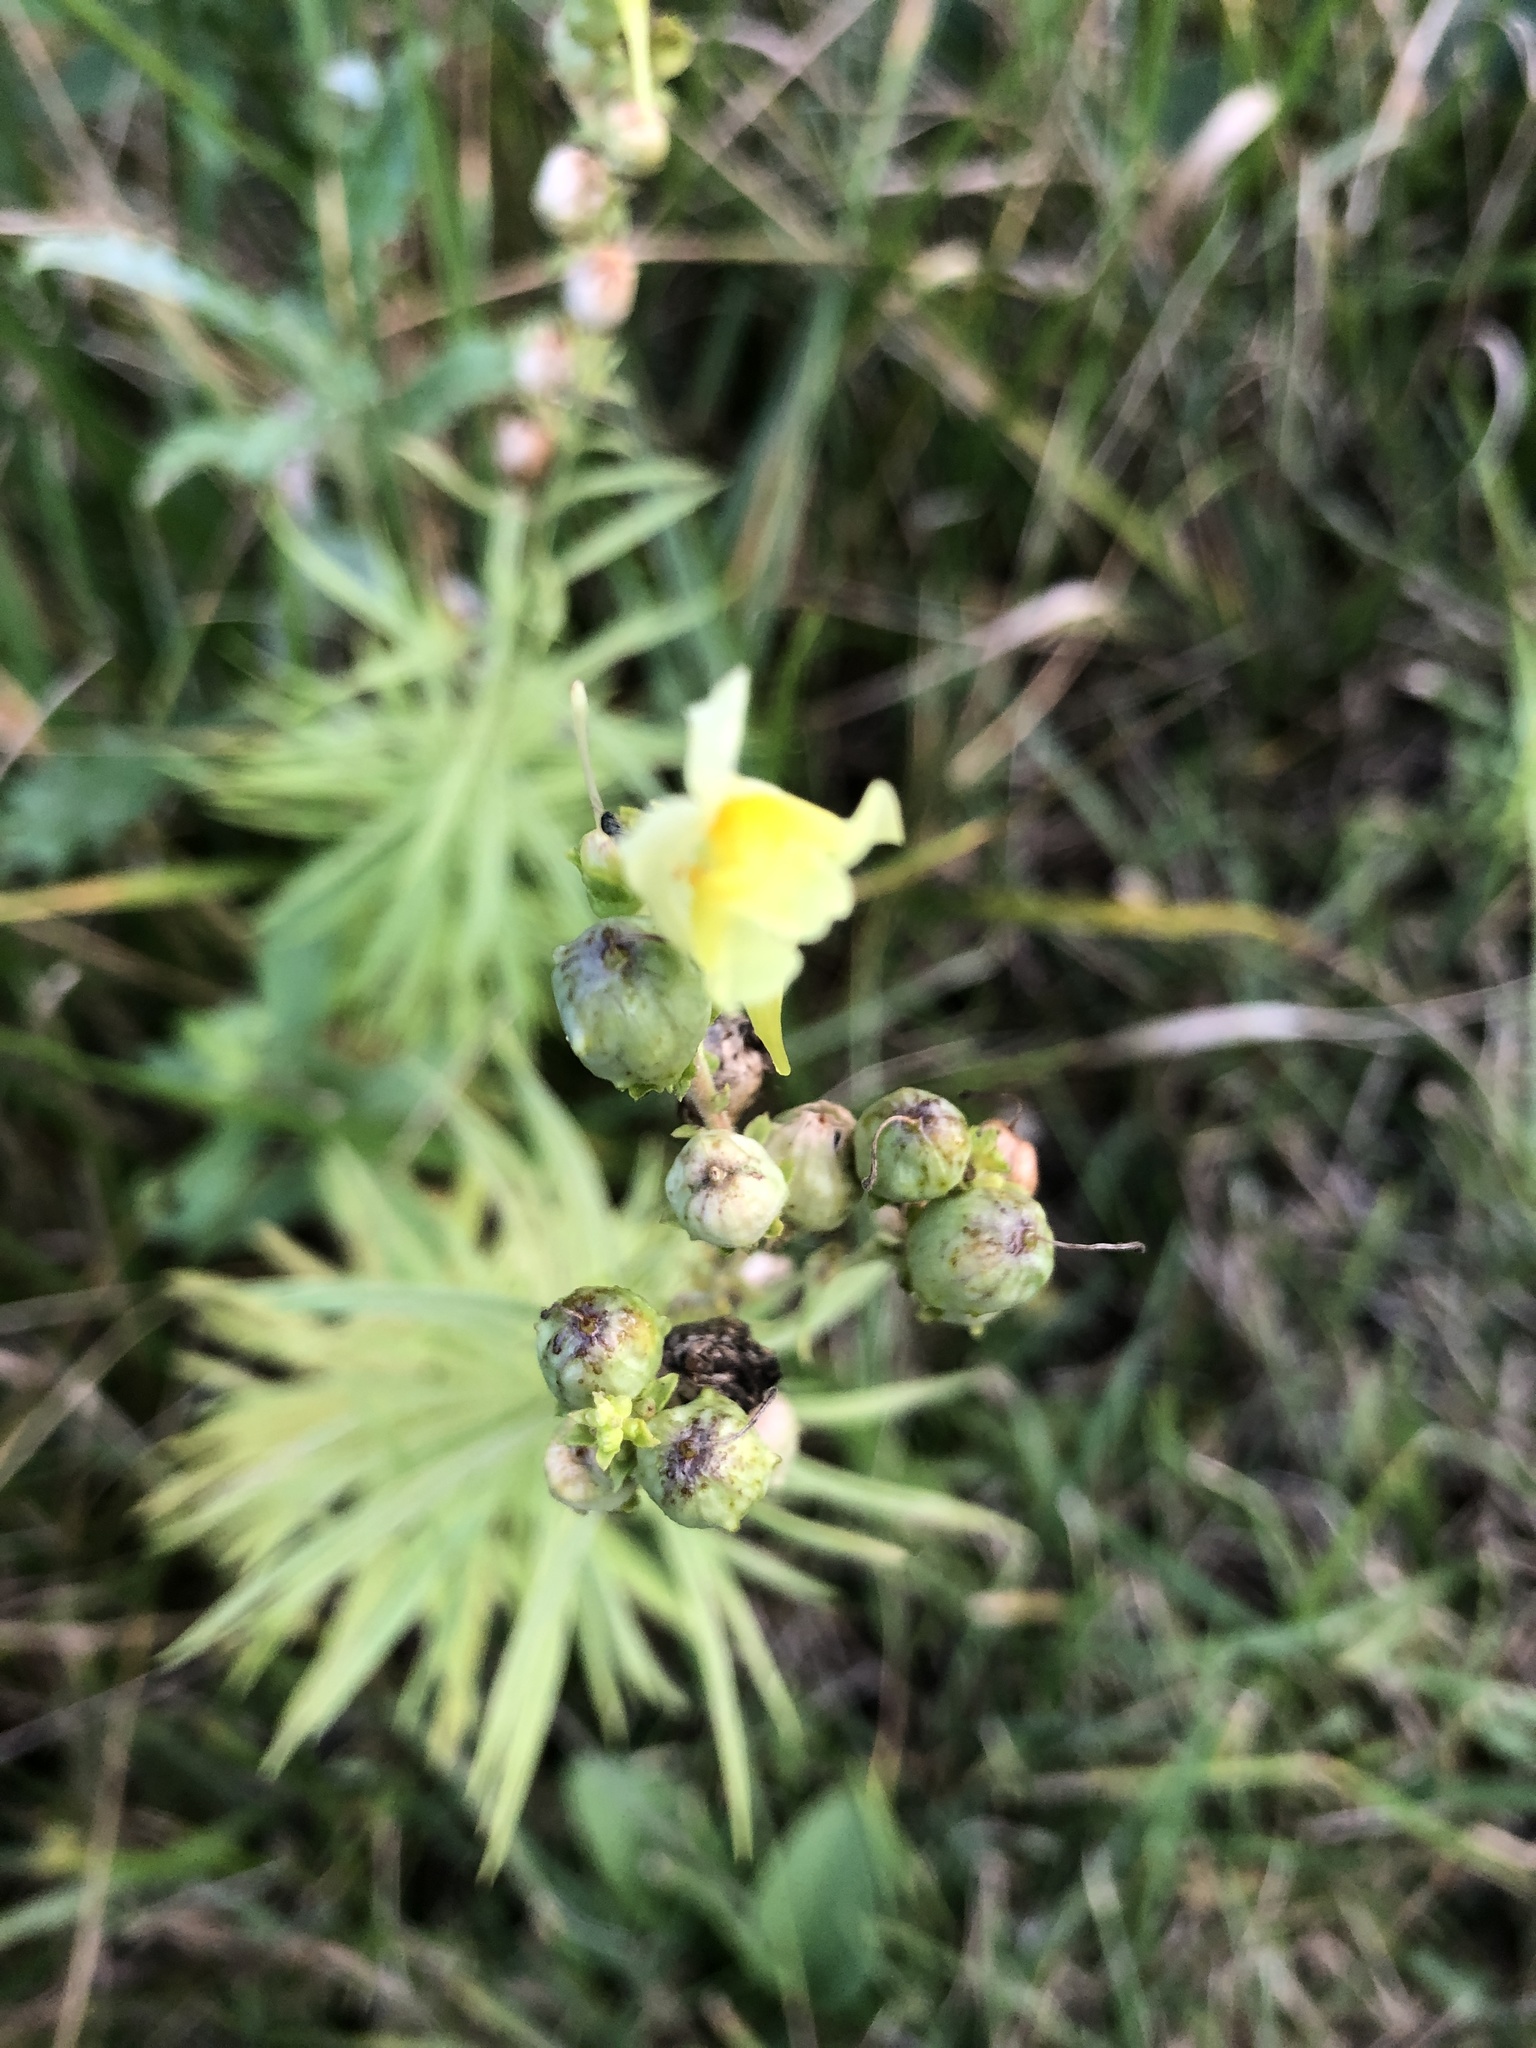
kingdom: Plantae
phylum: Tracheophyta
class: Magnoliopsida
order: Lamiales
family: Plantaginaceae
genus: Linaria
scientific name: Linaria vulgaris
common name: Butter and eggs
